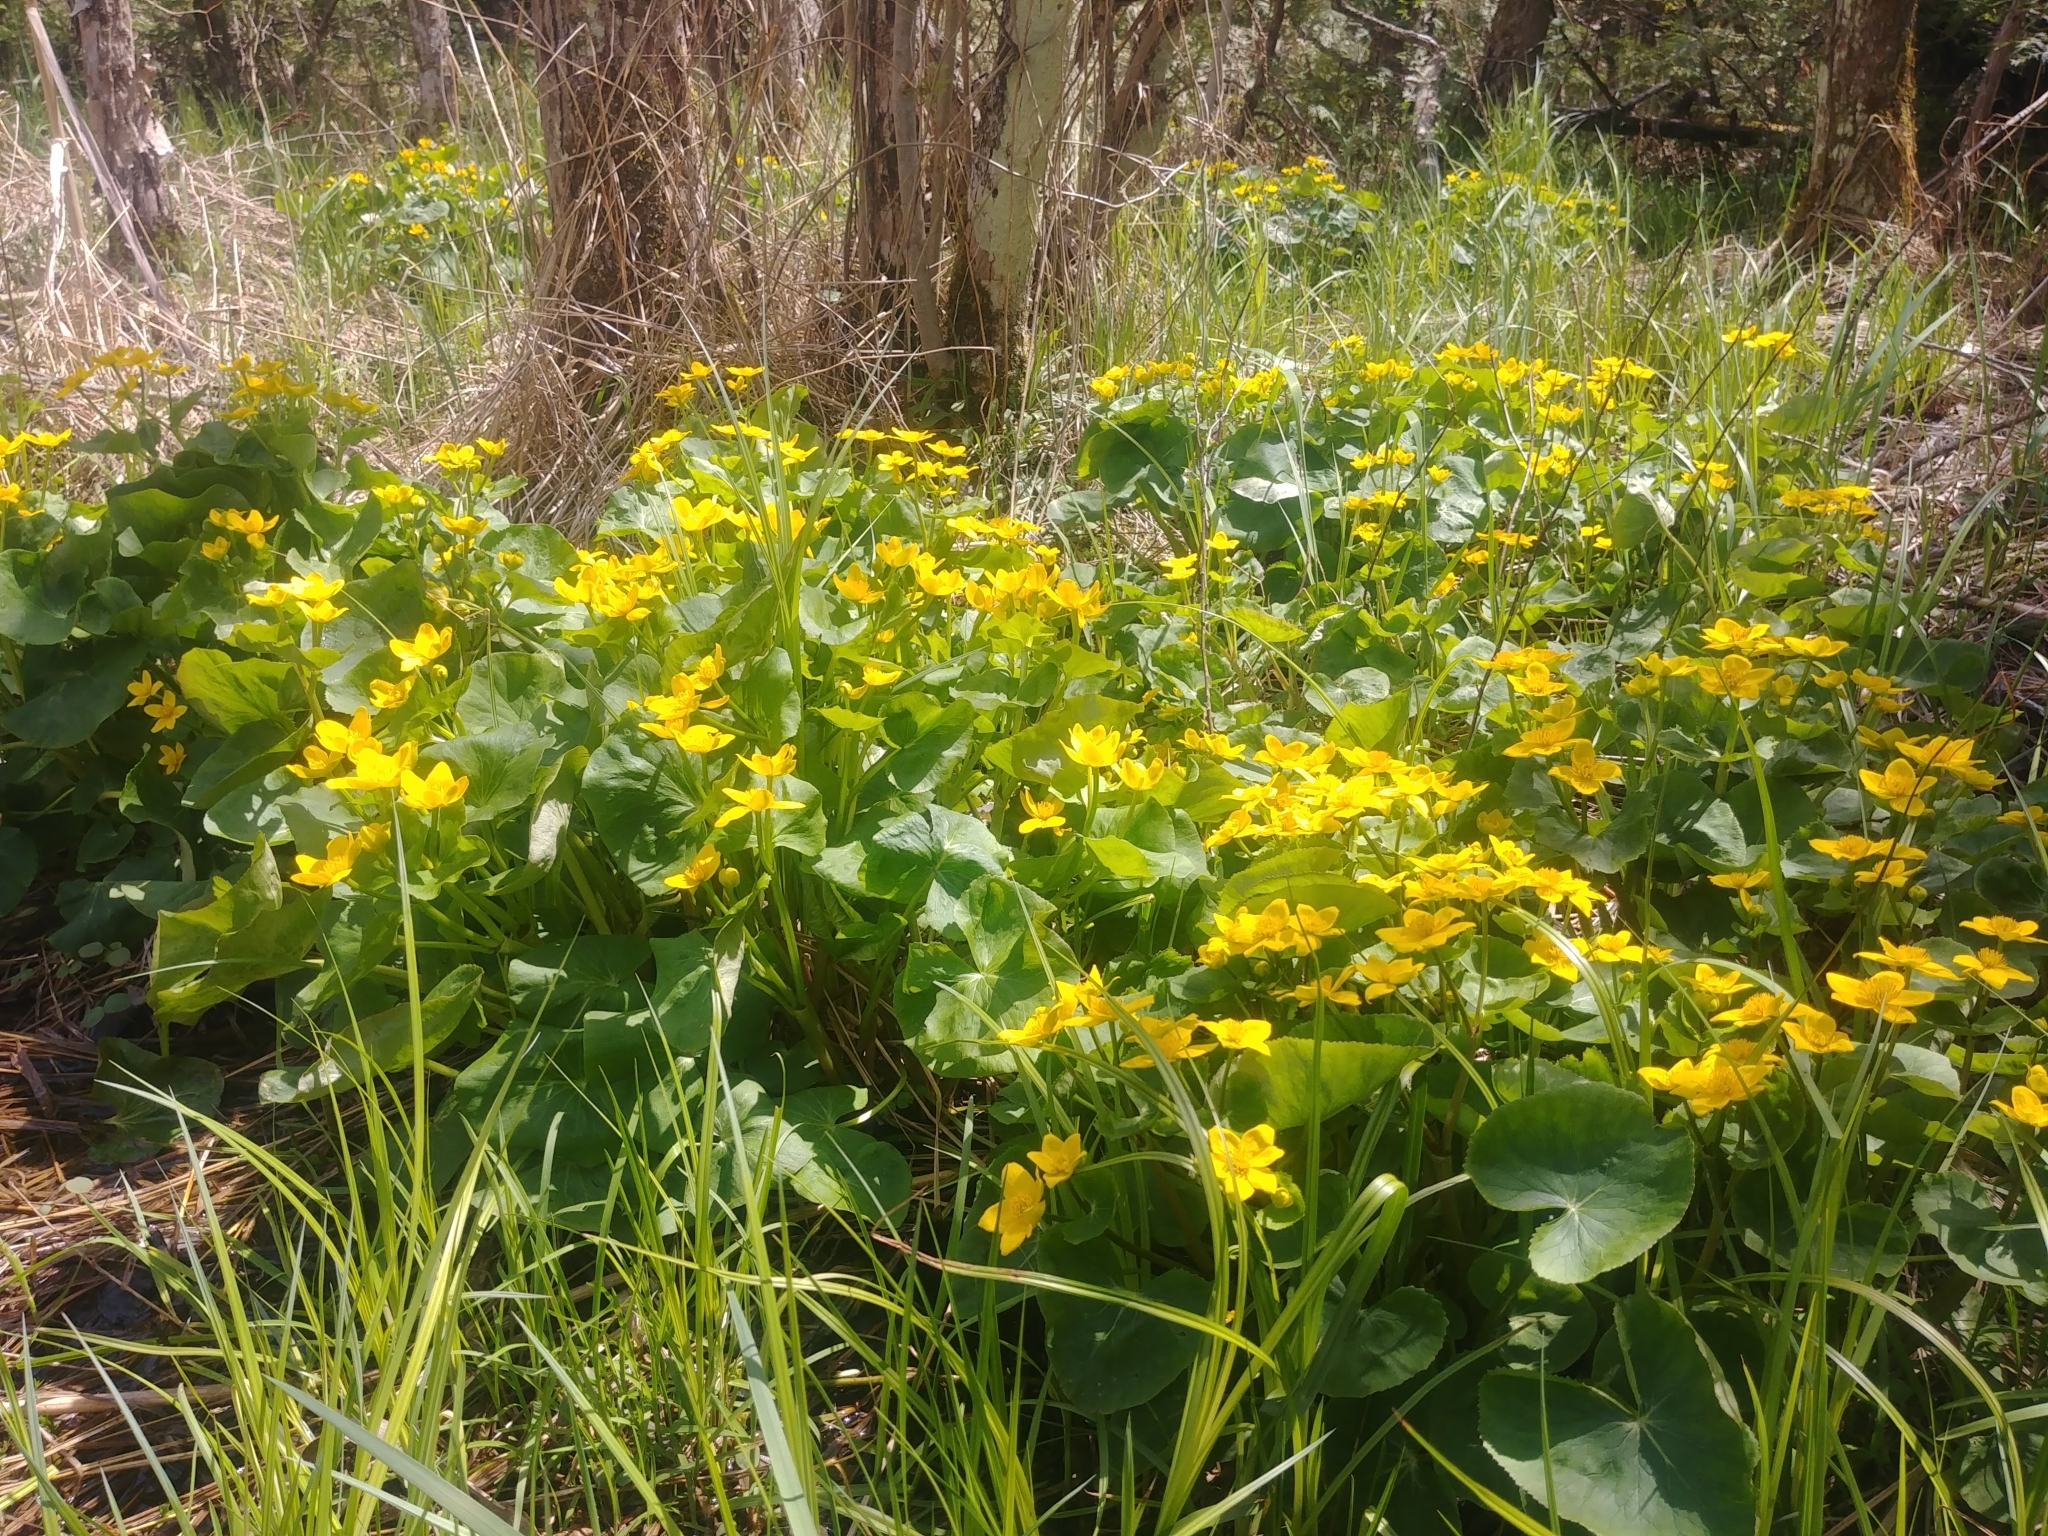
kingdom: Plantae
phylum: Tracheophyta
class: Magnoliopsida
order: Ranunculales
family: Ranunculaceae
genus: Caltha
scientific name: Caltha palustris
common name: Marsh marigold
